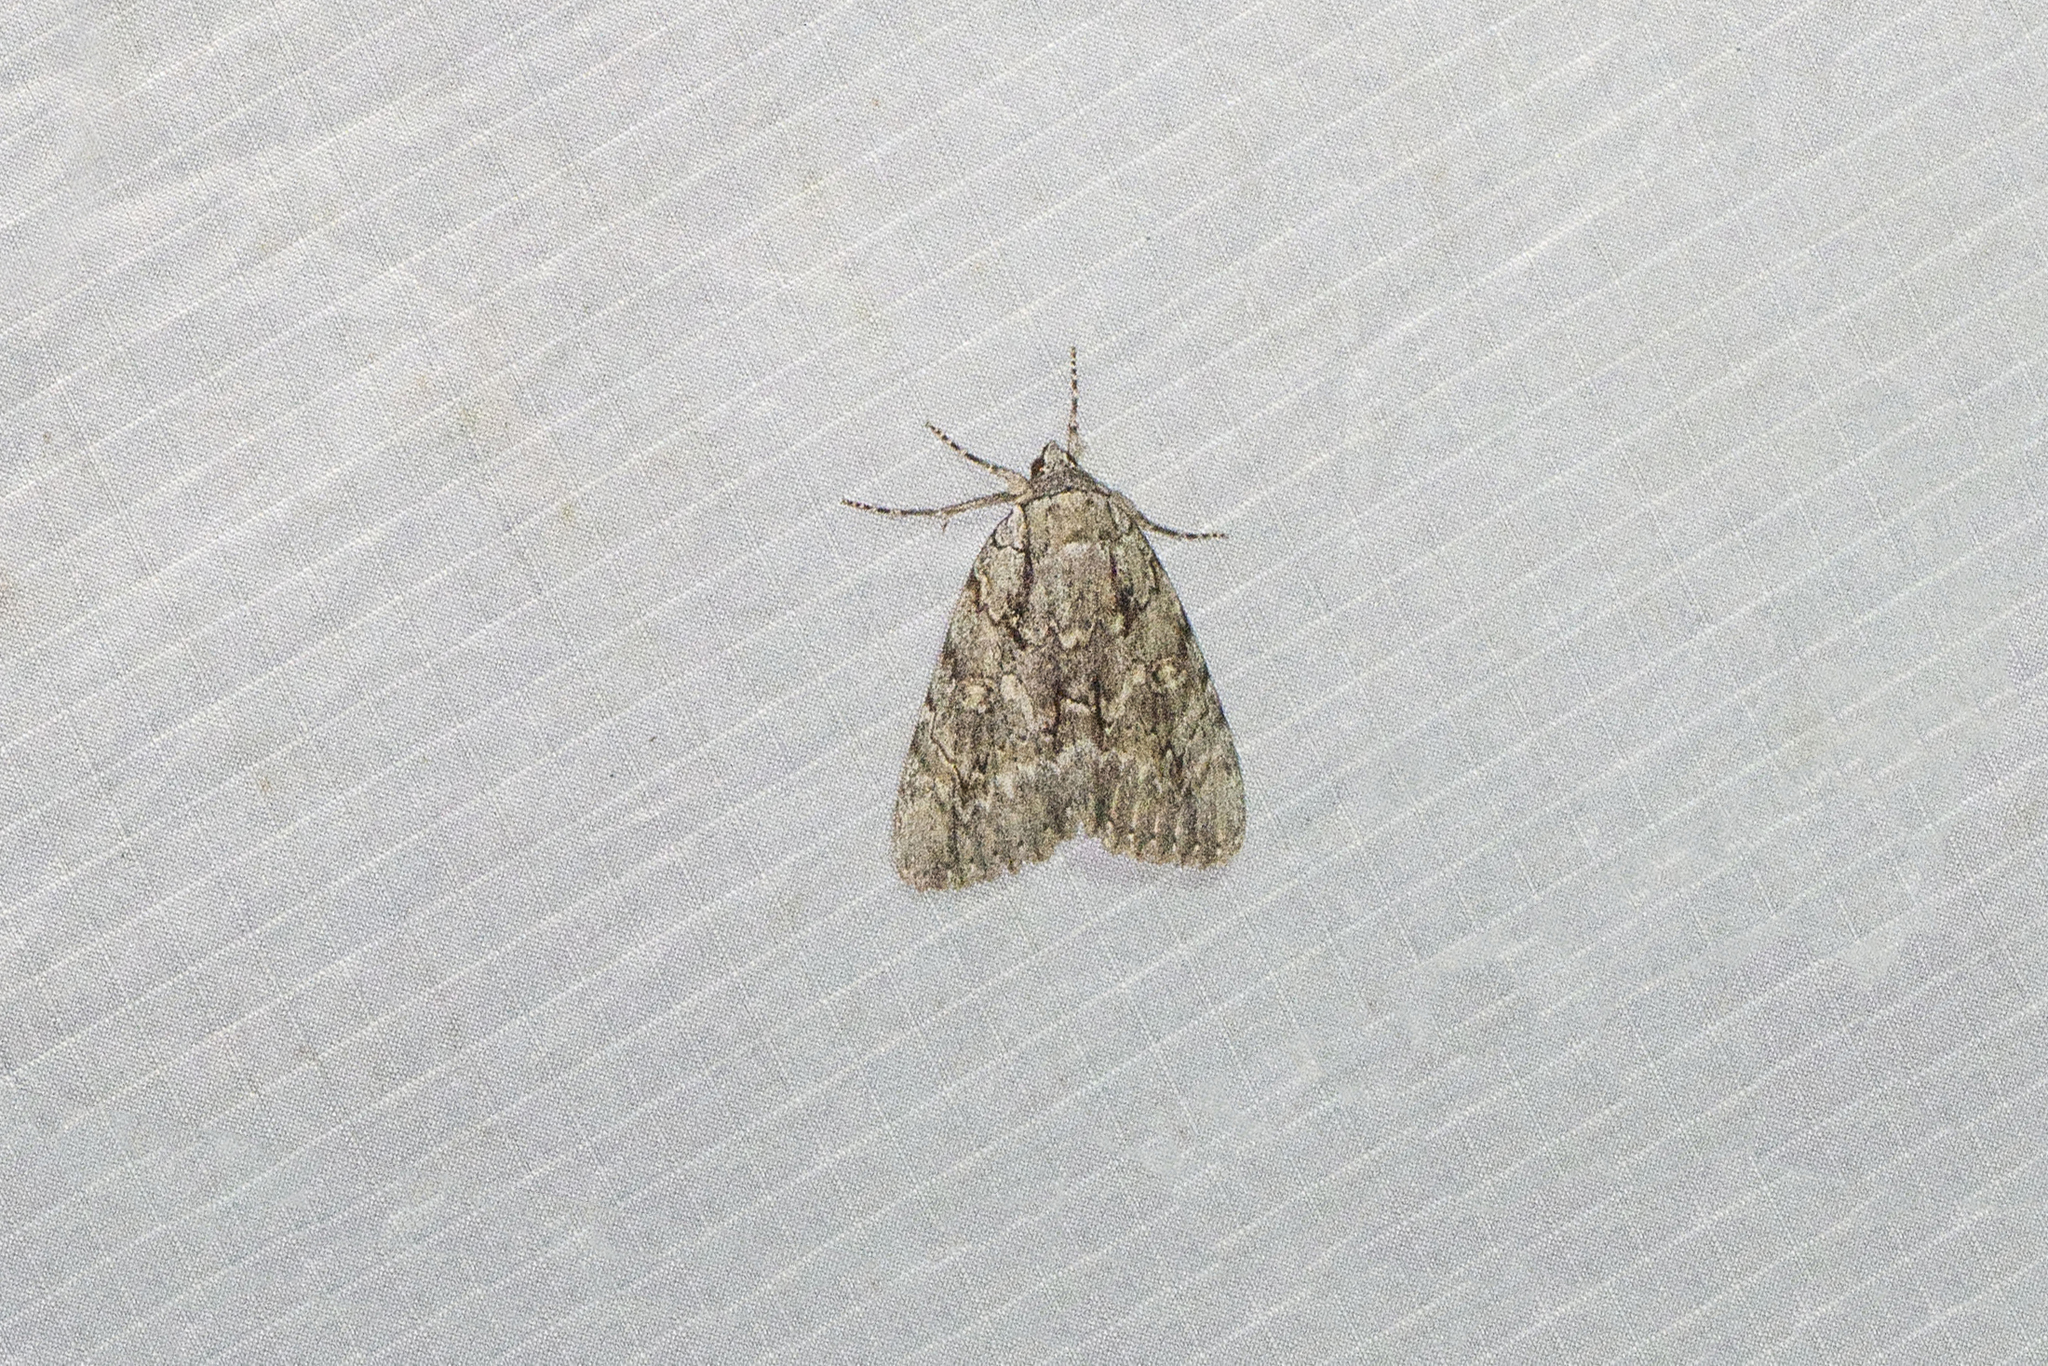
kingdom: Animalia
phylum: Arthropoda
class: Insecta
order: Lepidoptera
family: Erebidae
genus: Catocala
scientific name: Catocala habilis
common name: Habilis underwing
